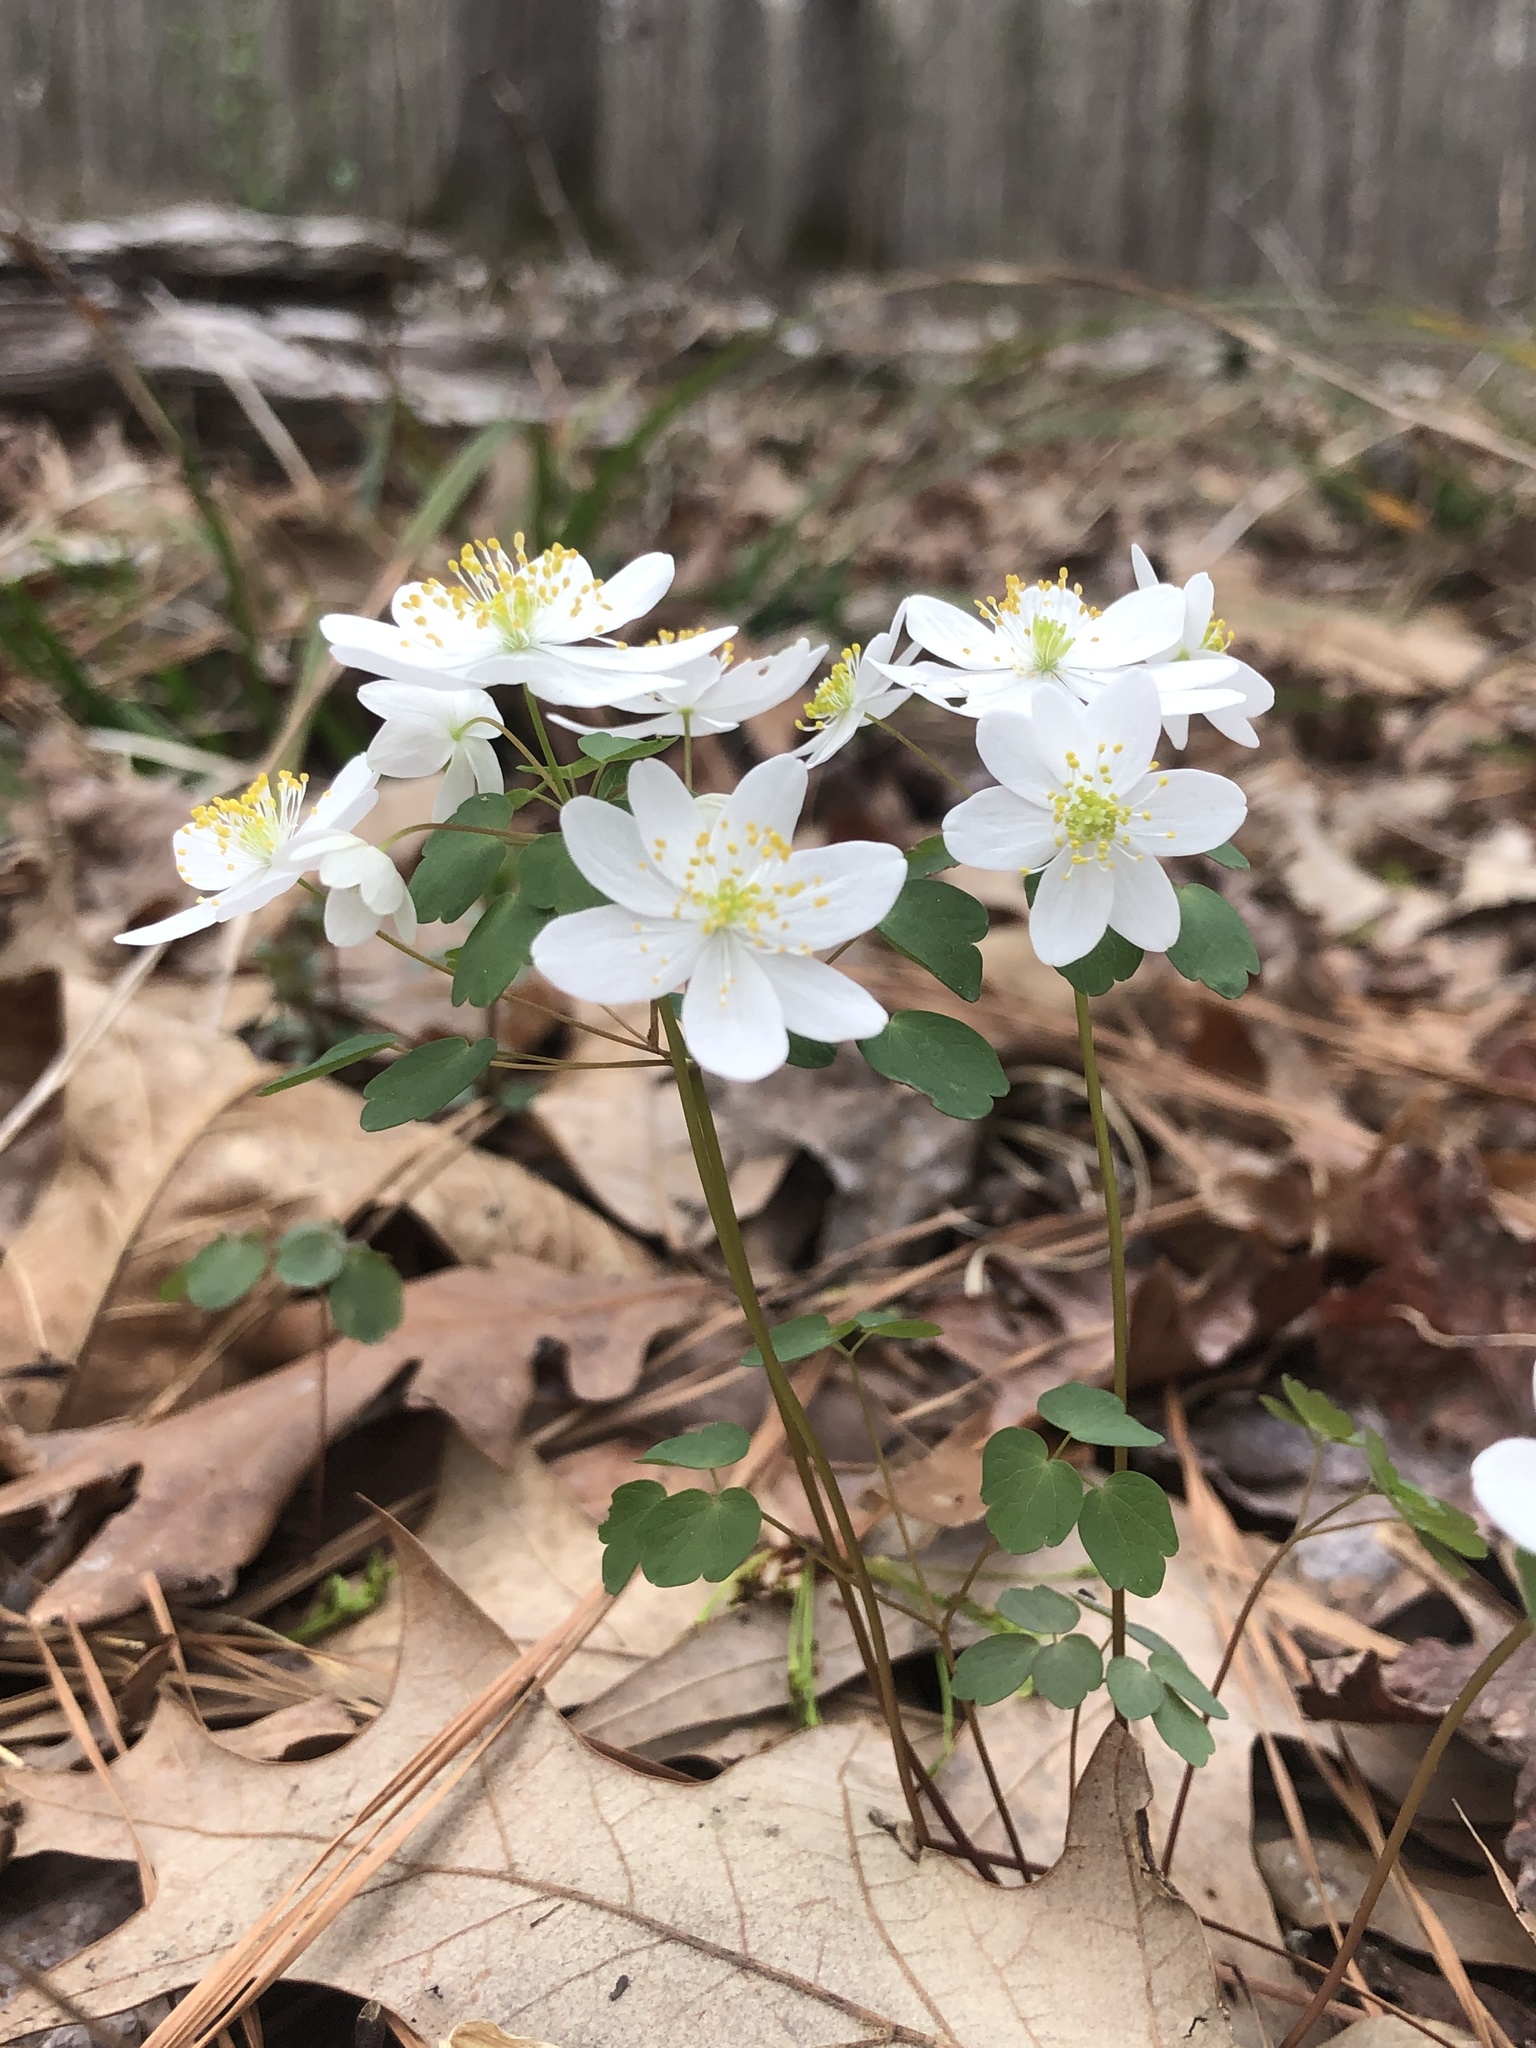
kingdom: Plantae
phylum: Tracheophyta
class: Magnoliopsida
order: Ranunculales
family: Ranunculaceae
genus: Thalictrum
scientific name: Thalictrum thalictroides
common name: Rue-anemone
